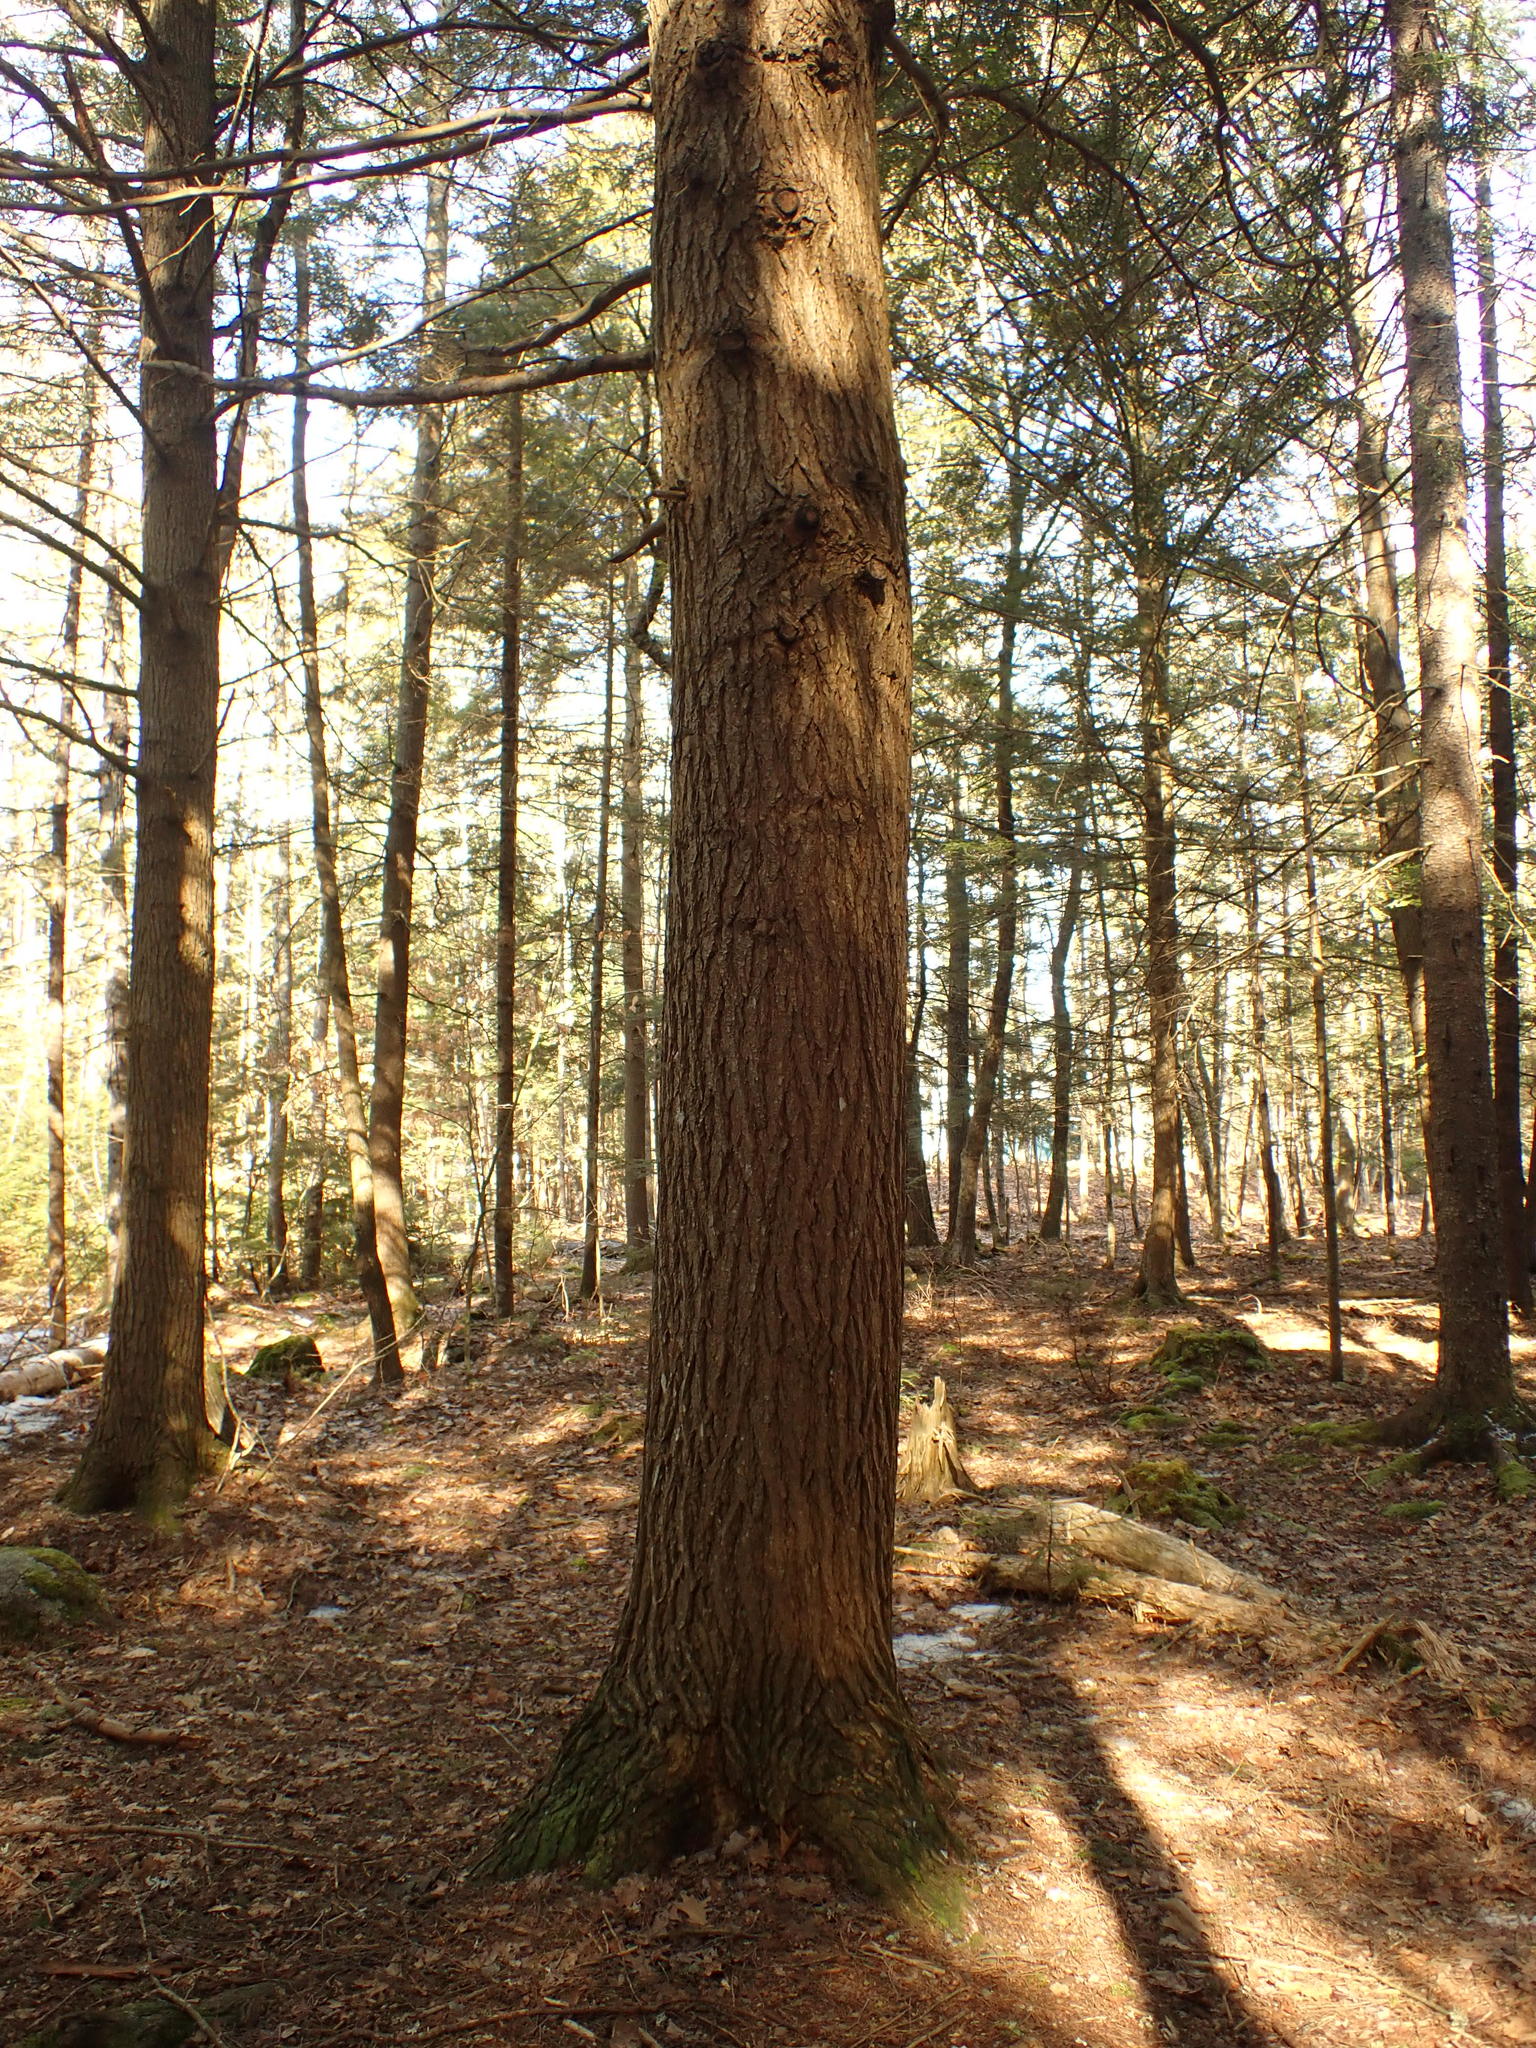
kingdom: Plantae
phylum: Tracheophyta
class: Pinopsida
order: Pinales
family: Pinaceae
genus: Tsuga
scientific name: Tsuga canadensis
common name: Eastern hemlock
